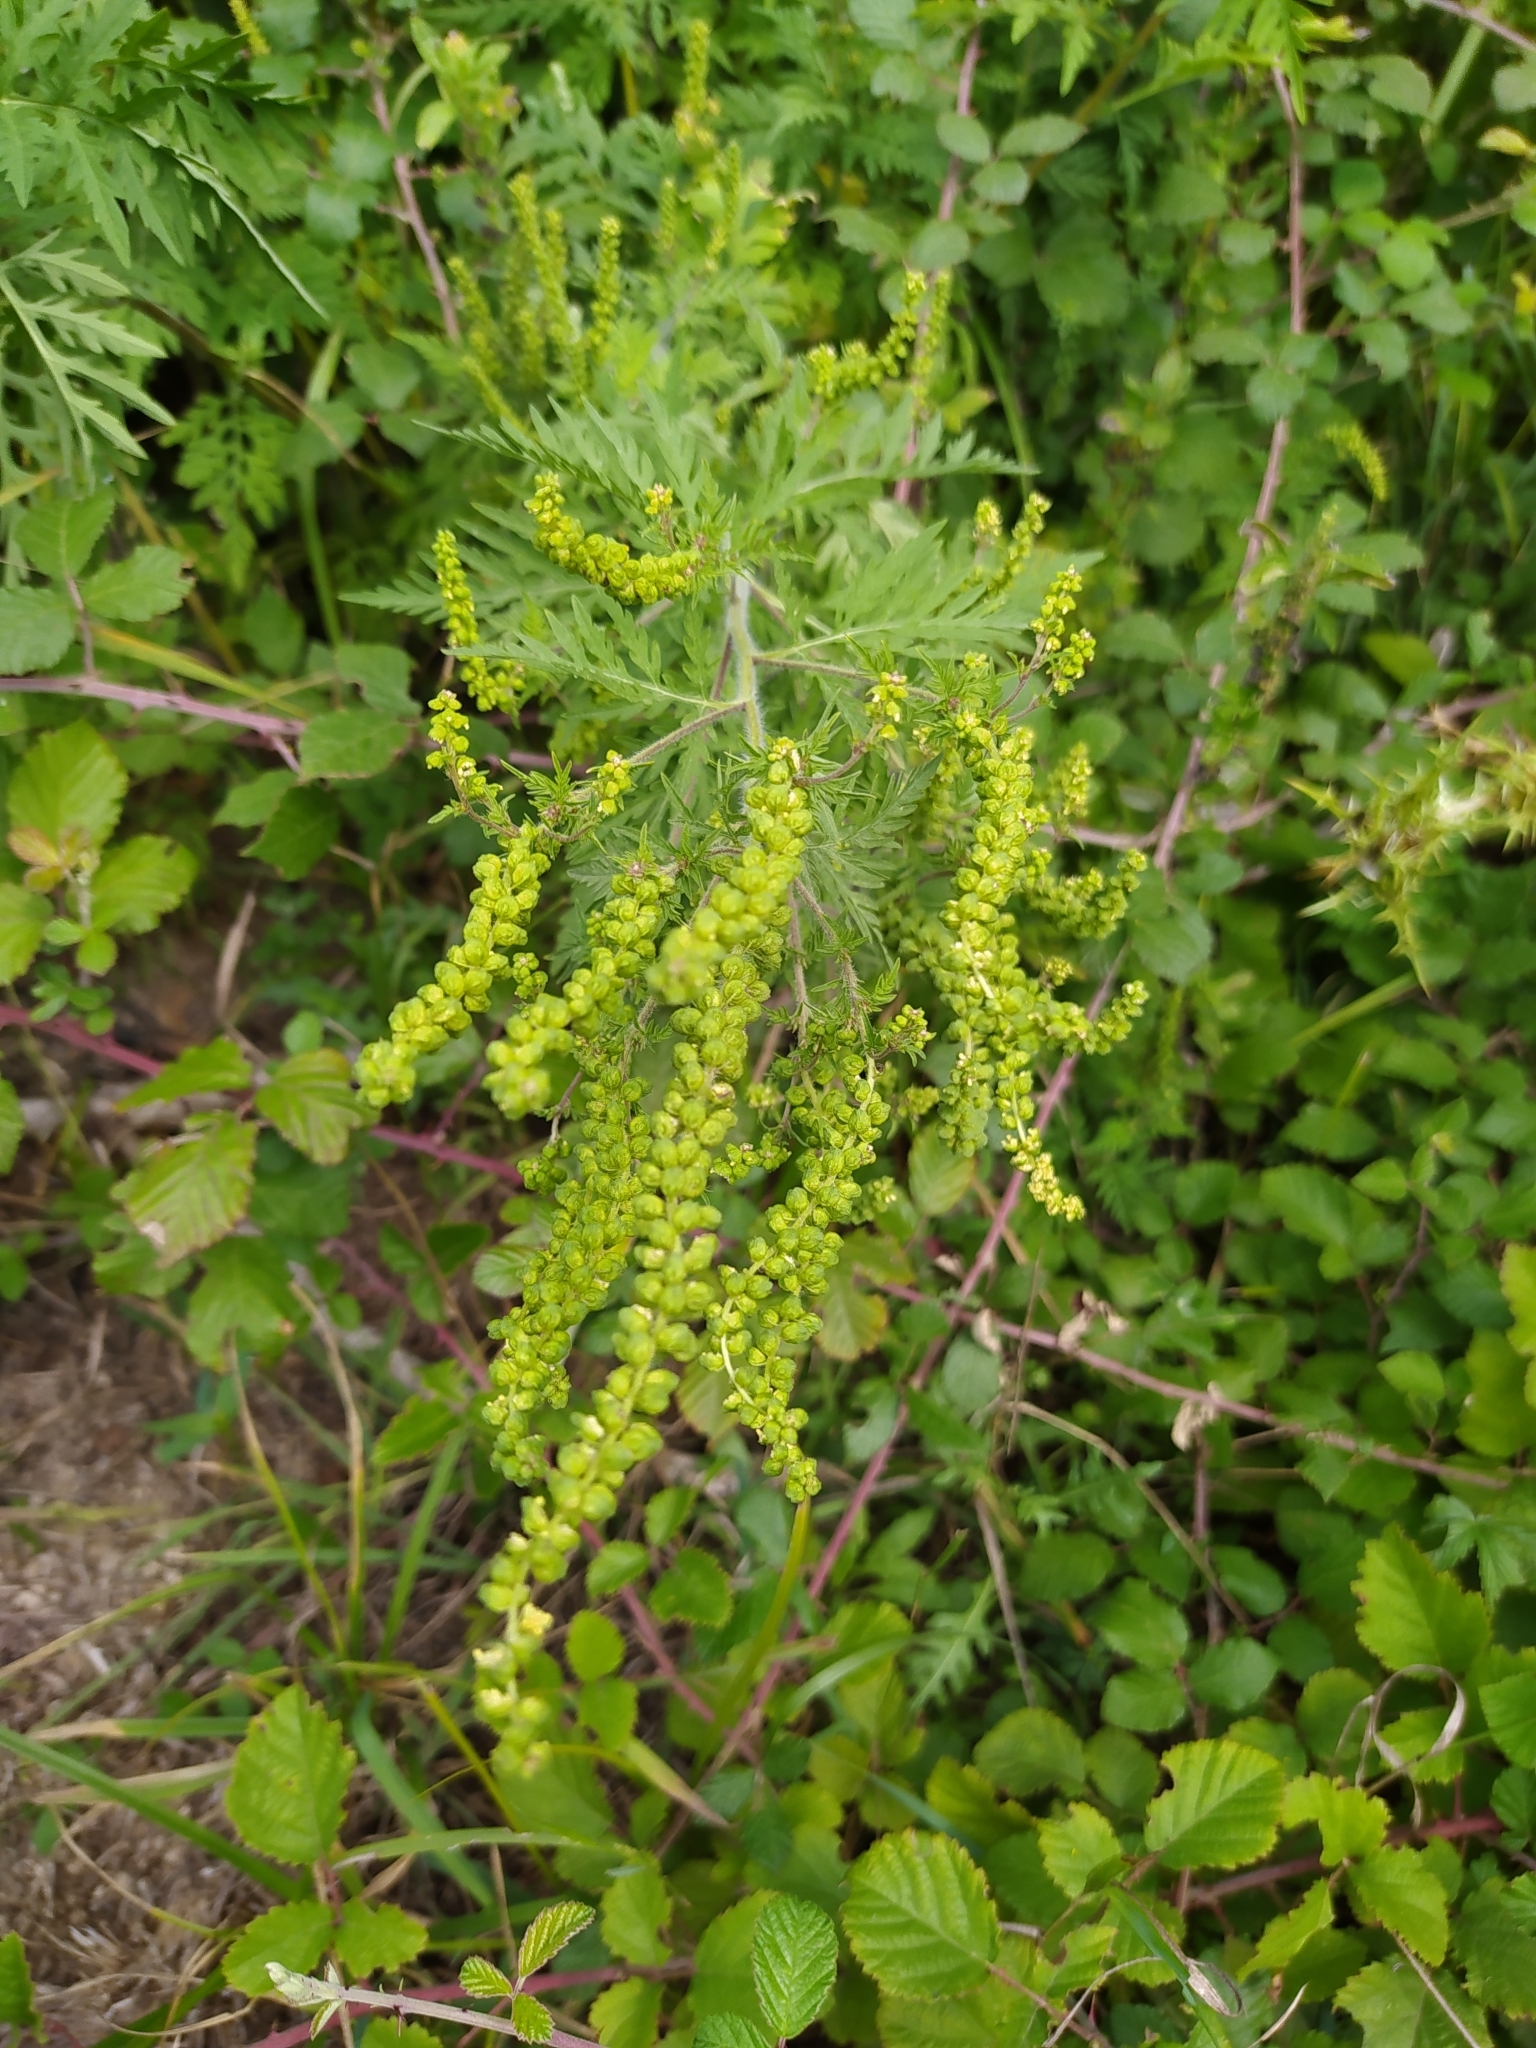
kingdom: Plantae
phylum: Tracheophyta
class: Magnoliopsida
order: Asterales
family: Asteraceae
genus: Ambrosia
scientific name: Ambrosia artemisiifolia
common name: Annual ragweed
